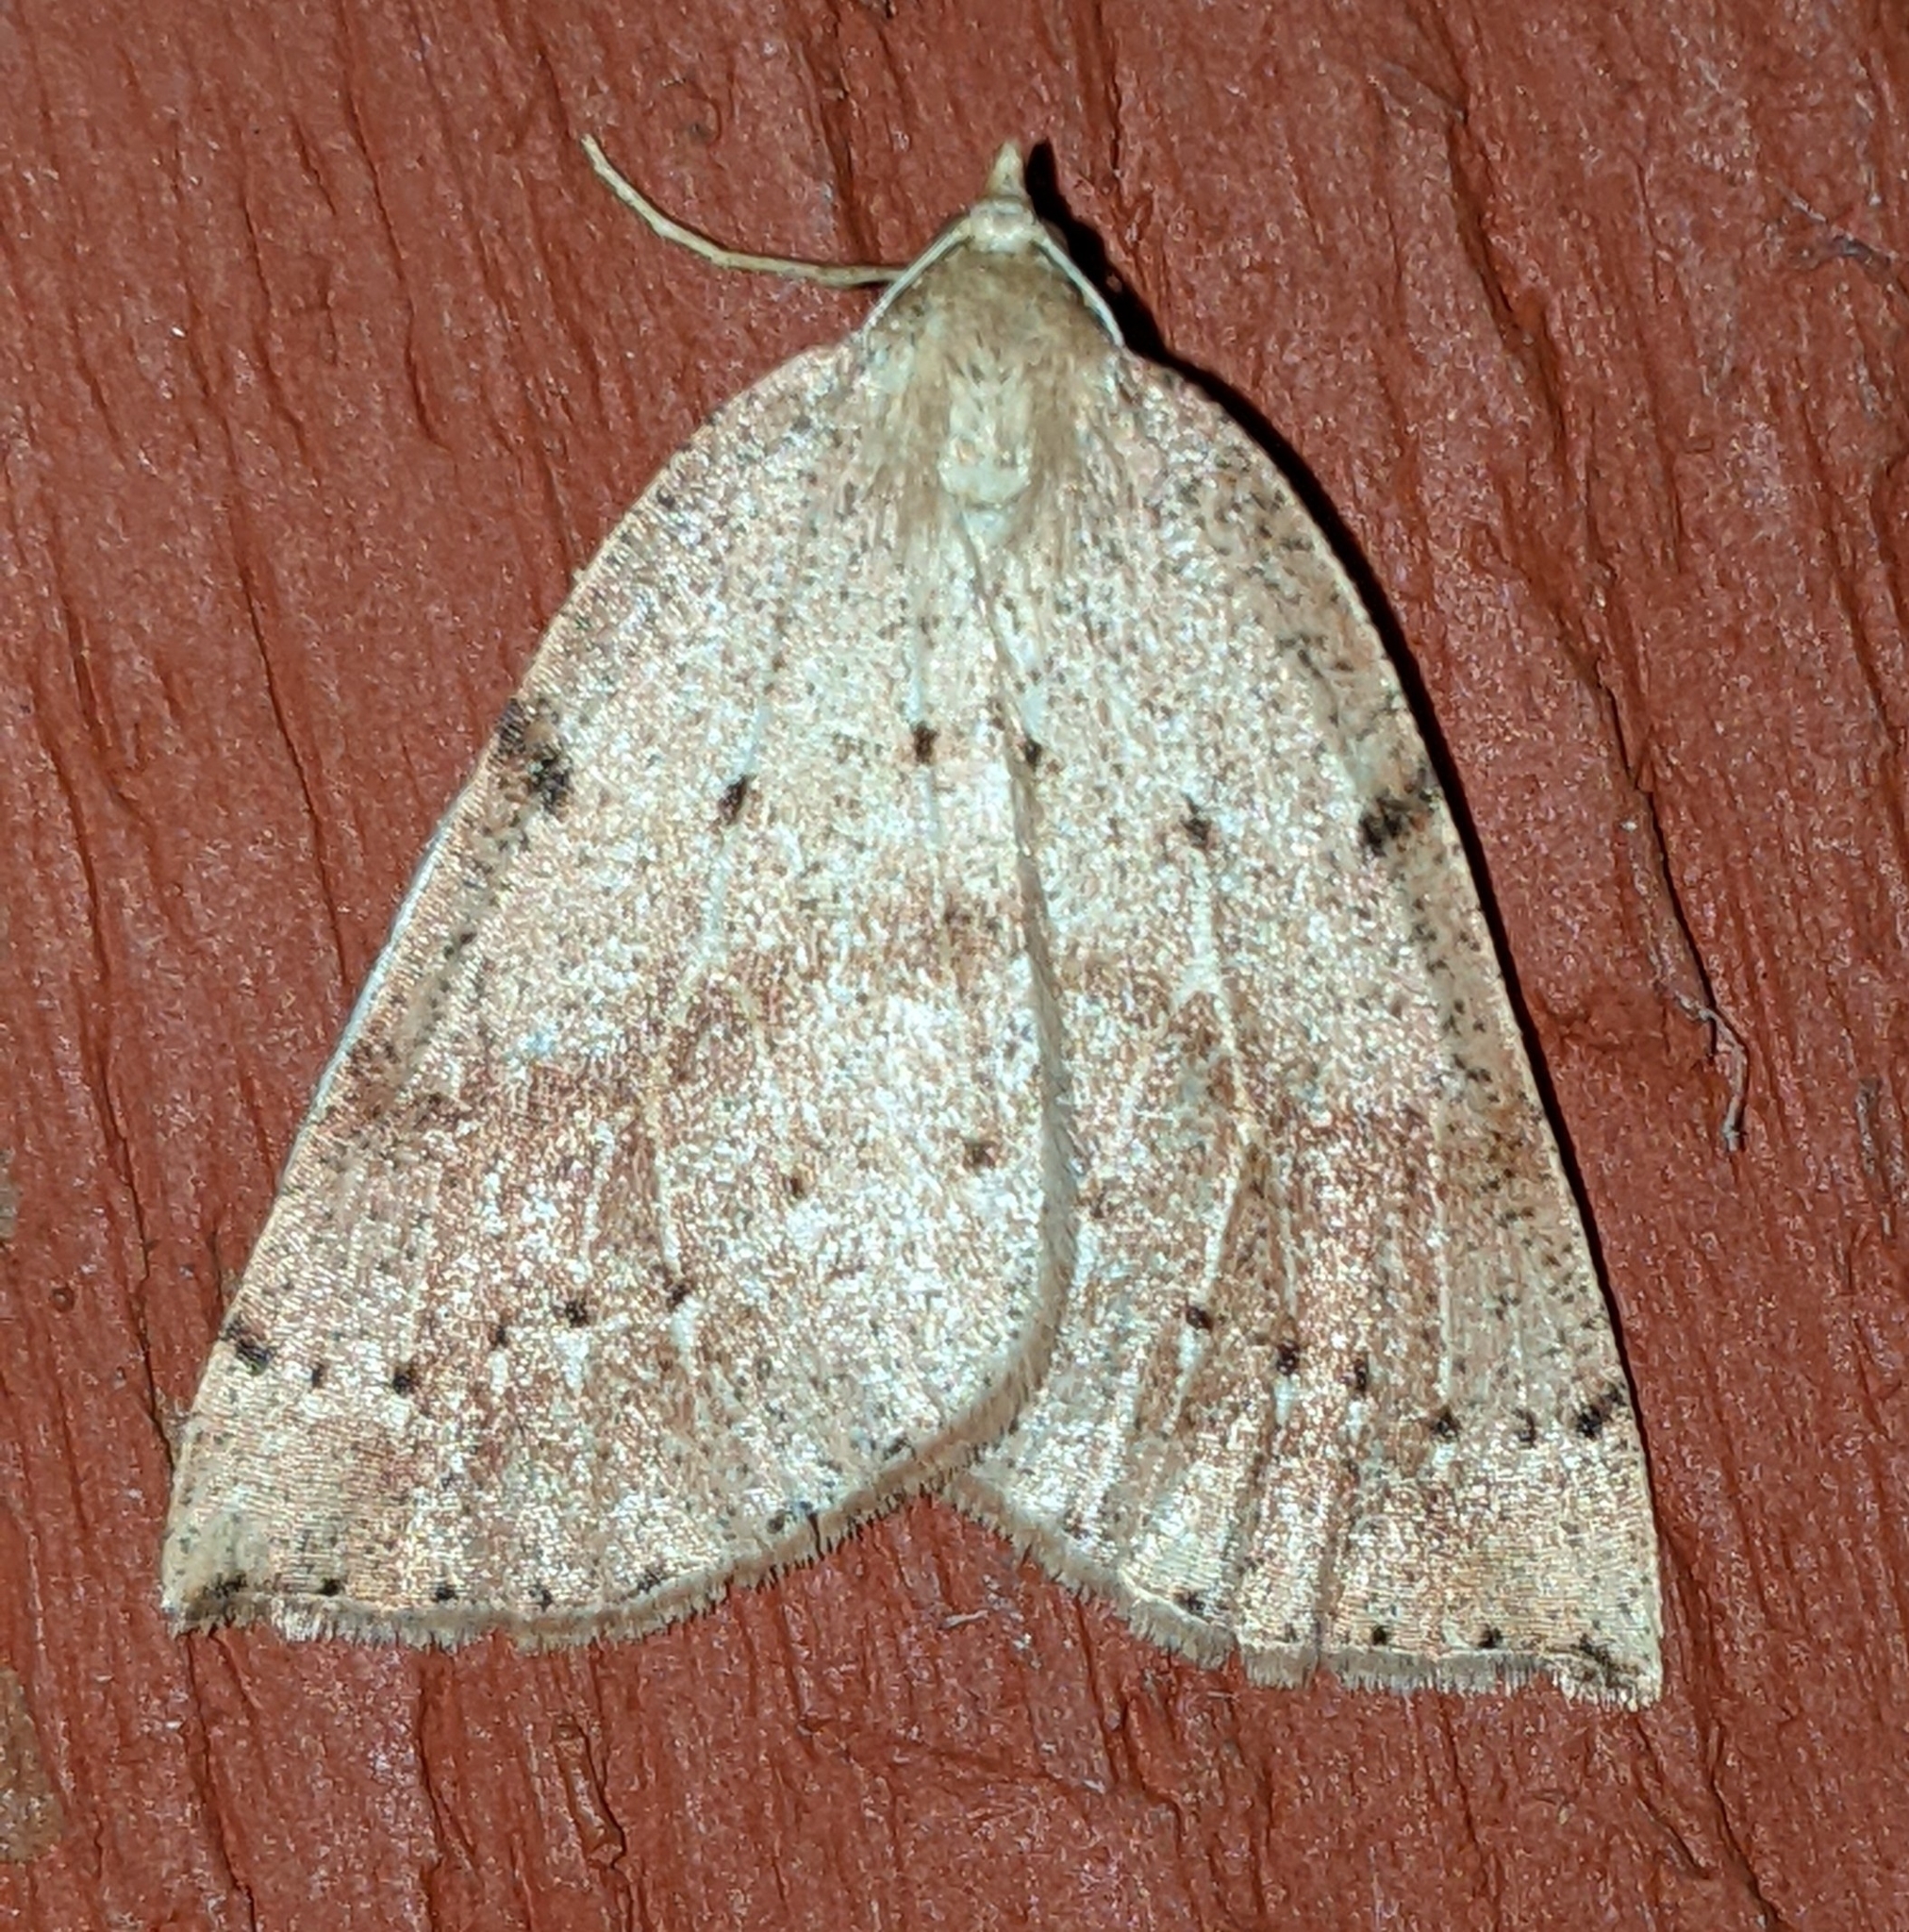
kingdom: Animalia
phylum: Arthropoda
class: Insecta
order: Lepidoptera
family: Geometridae
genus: Thallophaga
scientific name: Thallophaga hyperborea
